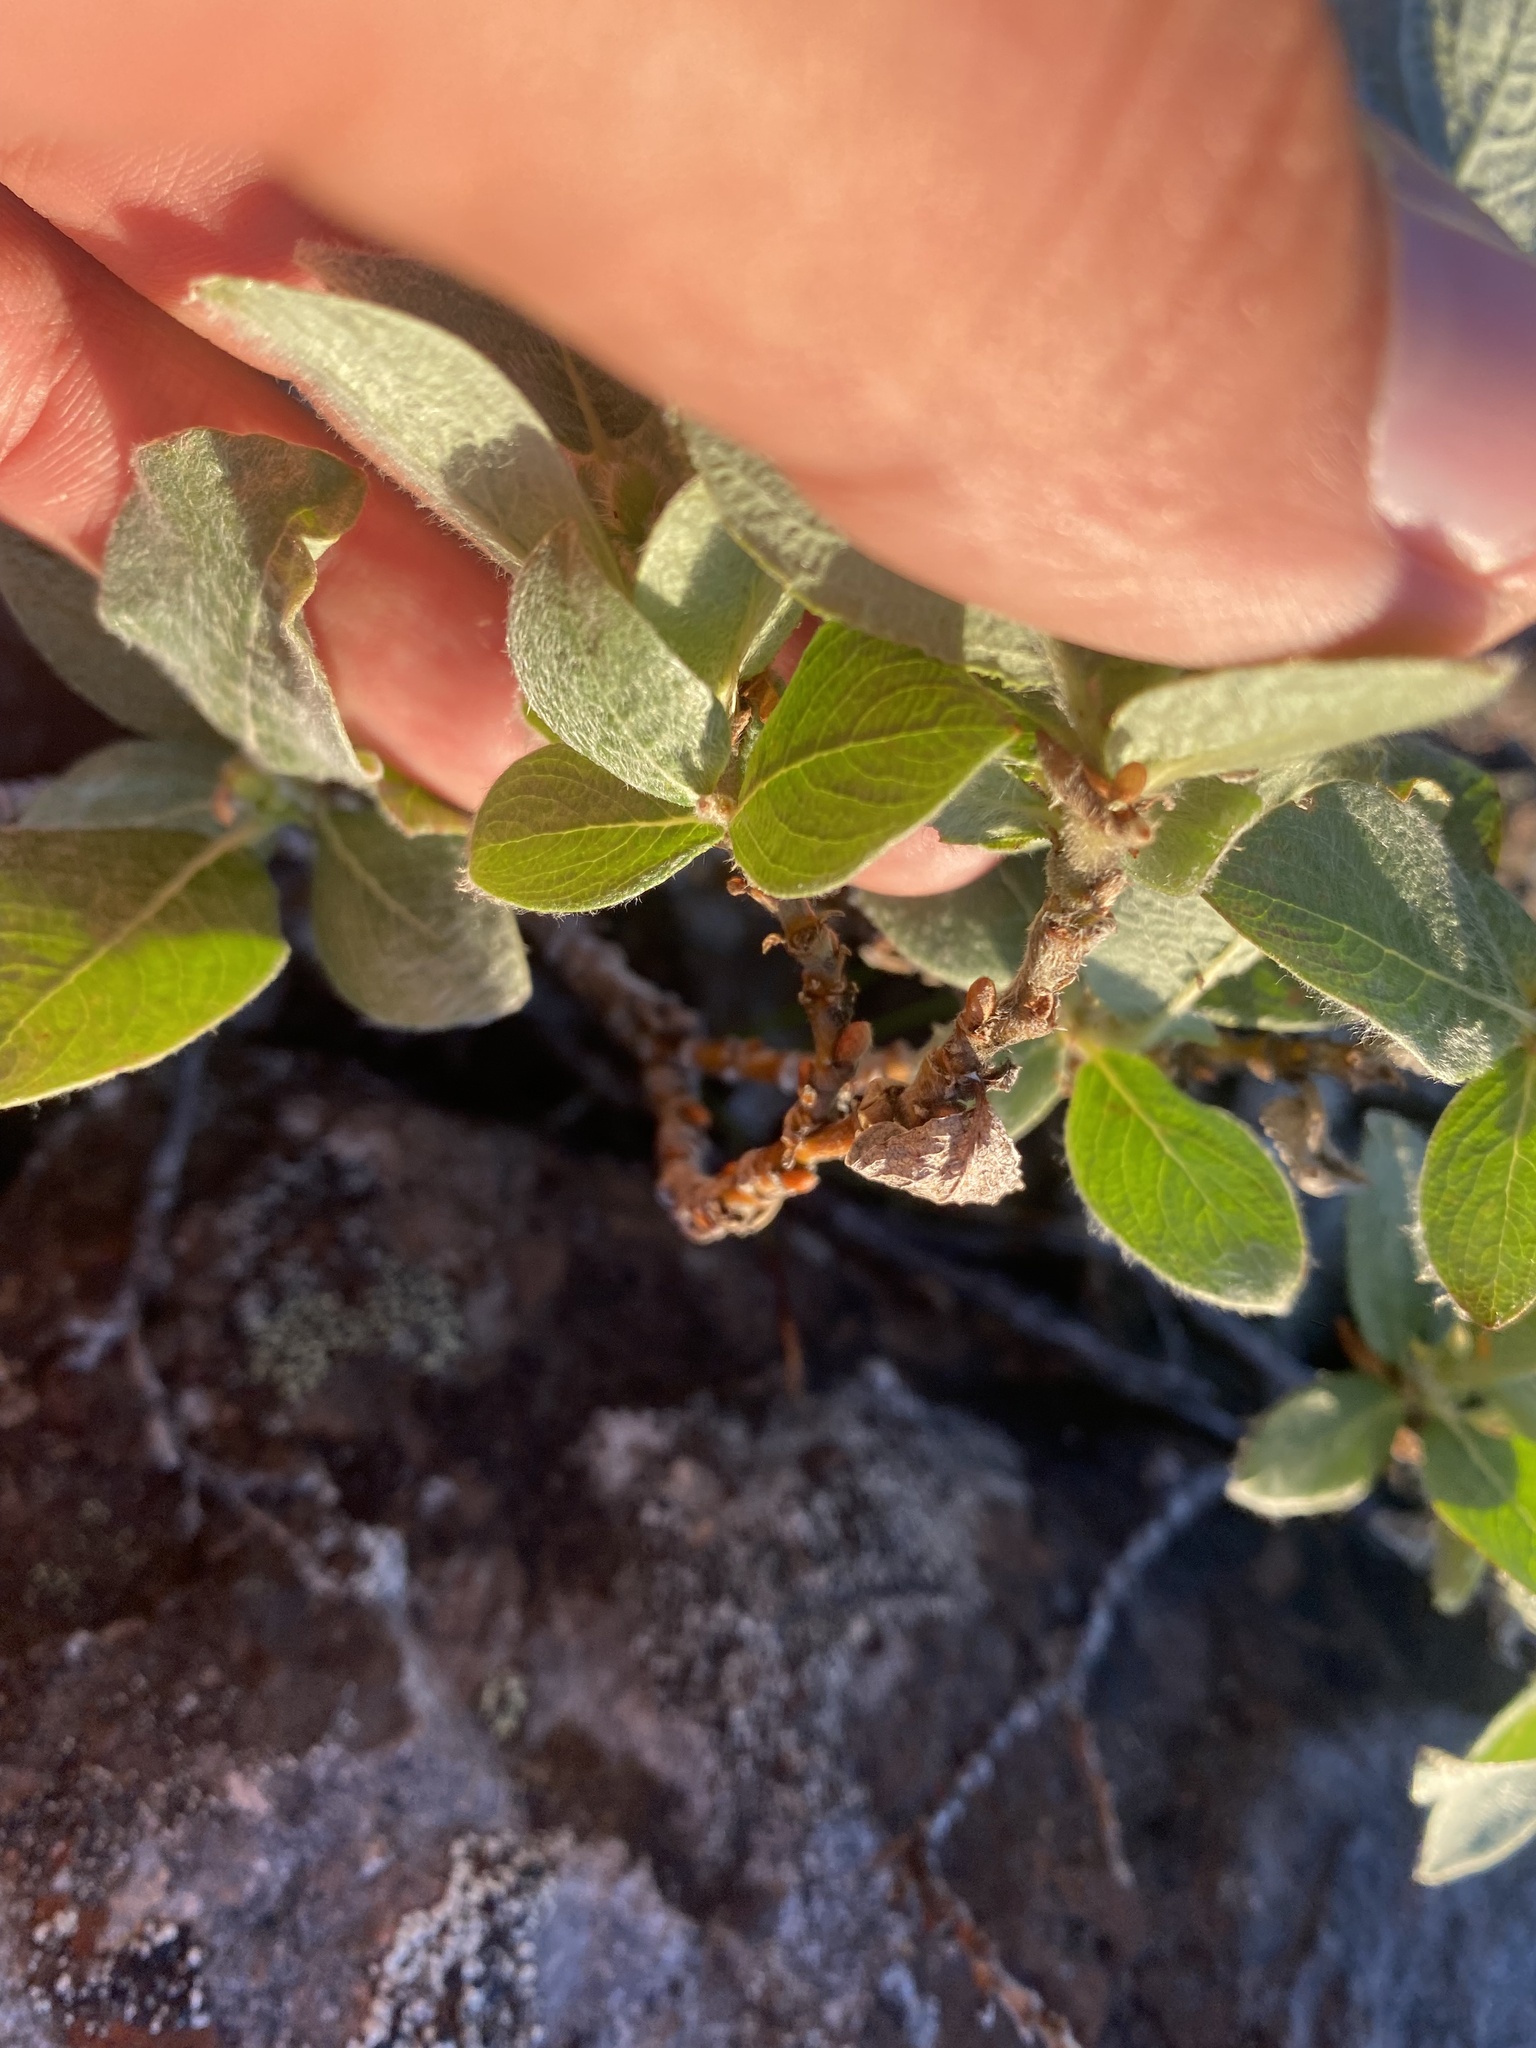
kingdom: Plantae
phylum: Tracheophyta
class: Magnoliopsida
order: Malpighiales
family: Salicaceae
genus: Salix
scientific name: Salix lanata
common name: Woolly willow
